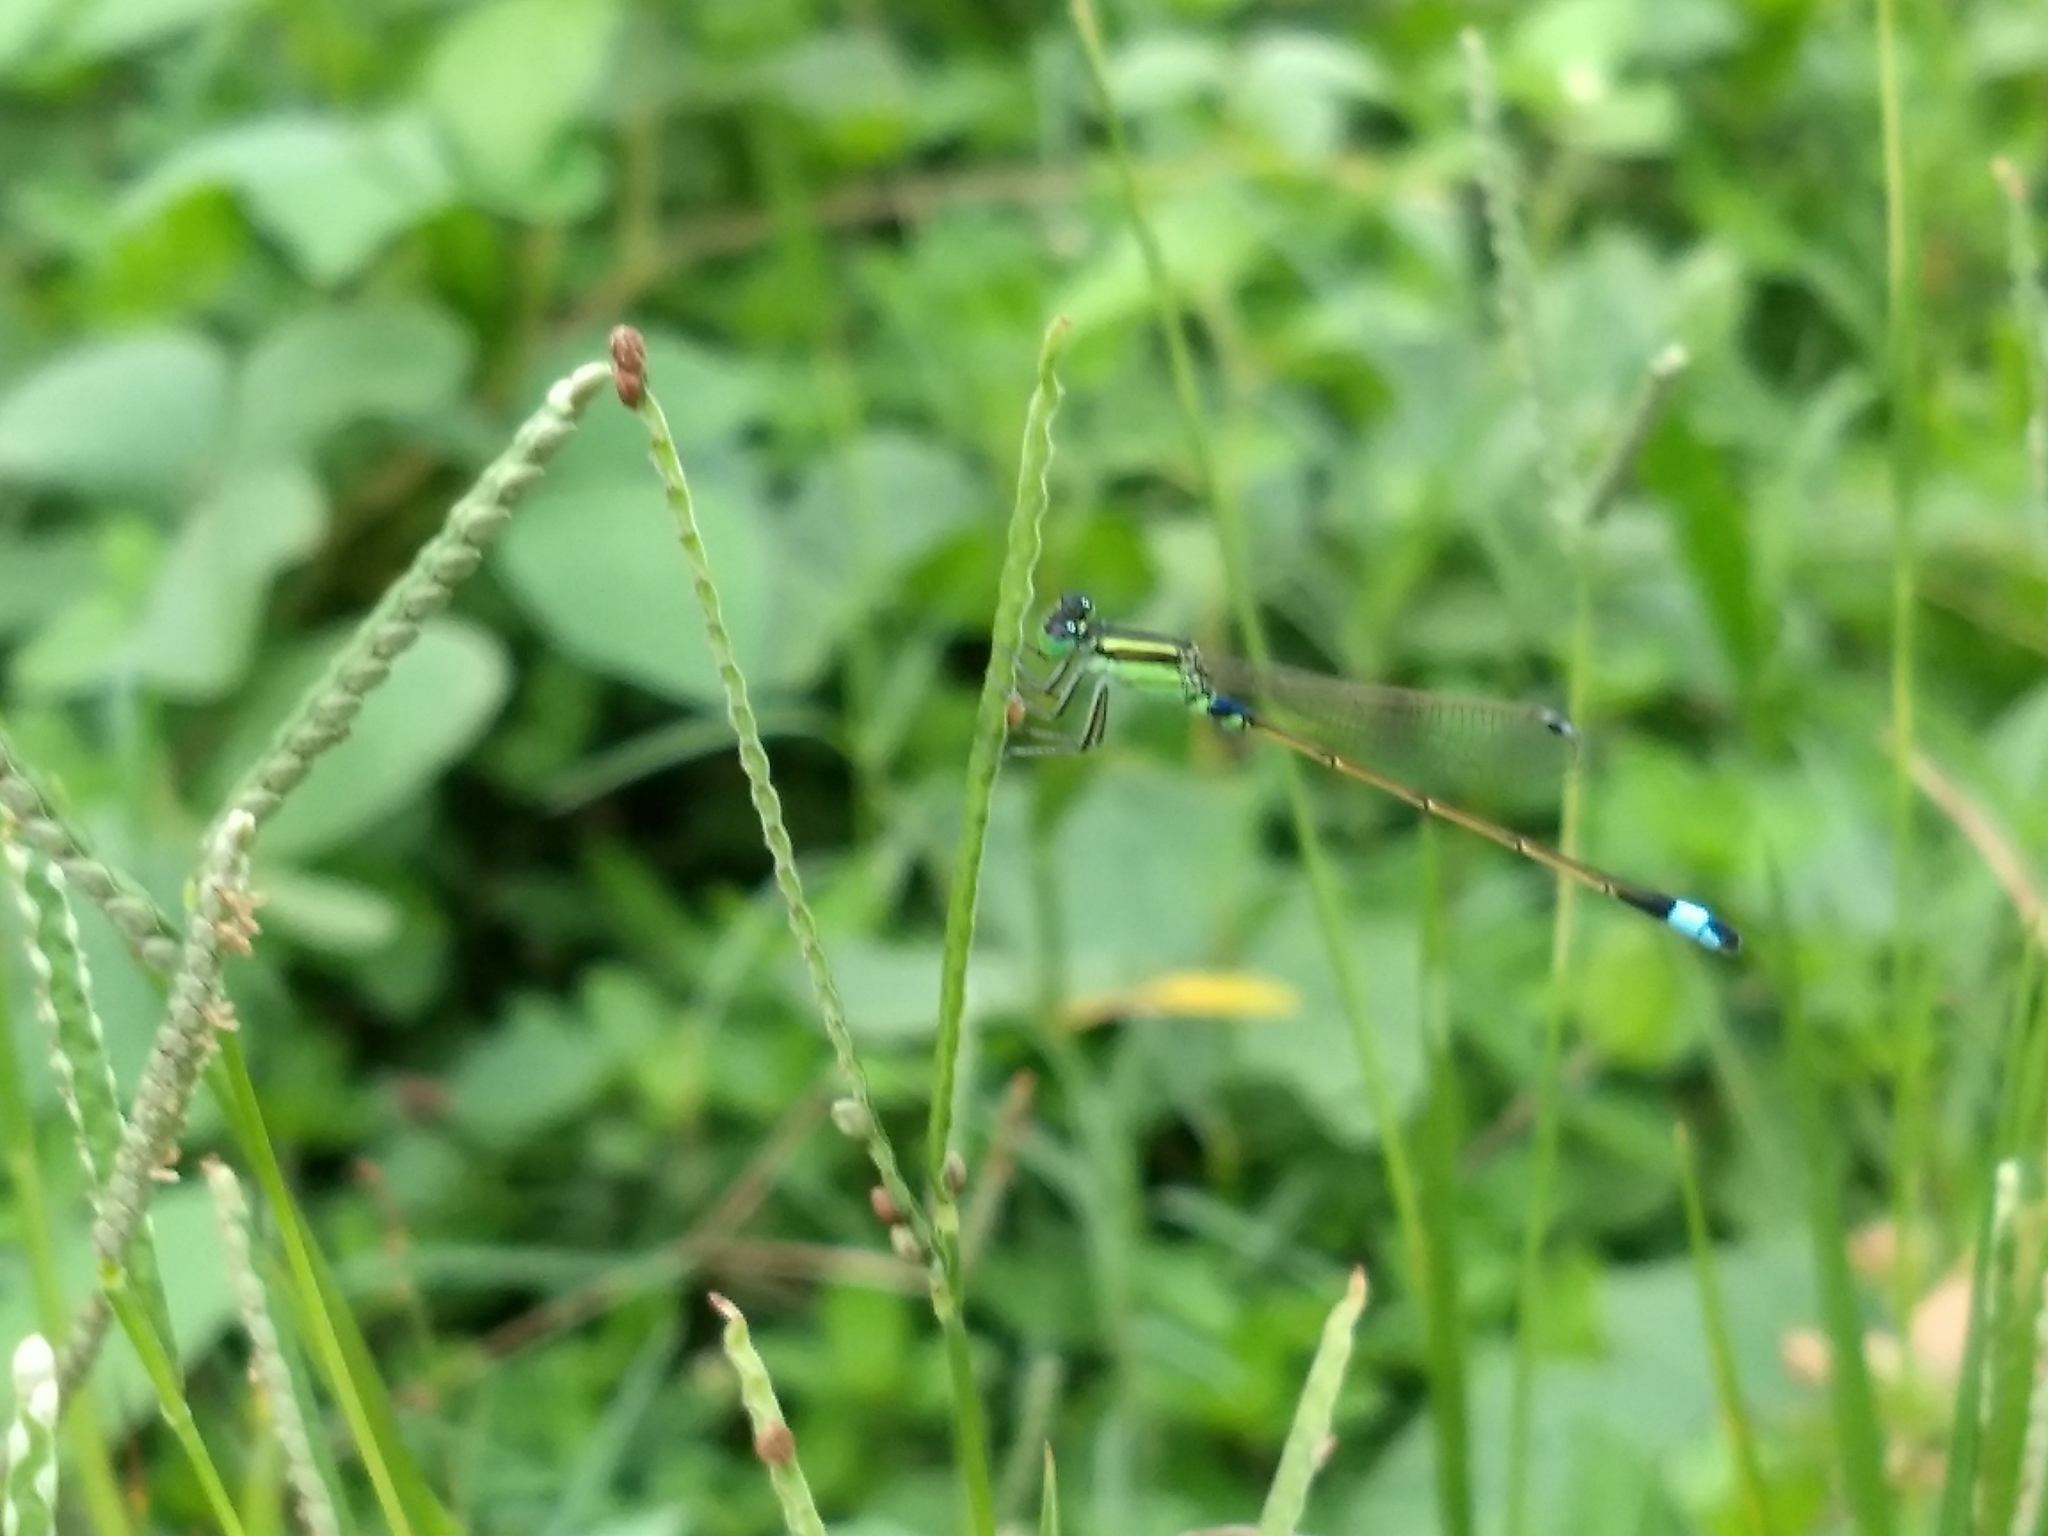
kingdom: Animalia
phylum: Arthropoda
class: Insecta
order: Odonata
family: Coenagrionidae
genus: Ischnura
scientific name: Ischnura senegalensis
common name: Tropical bluetail
